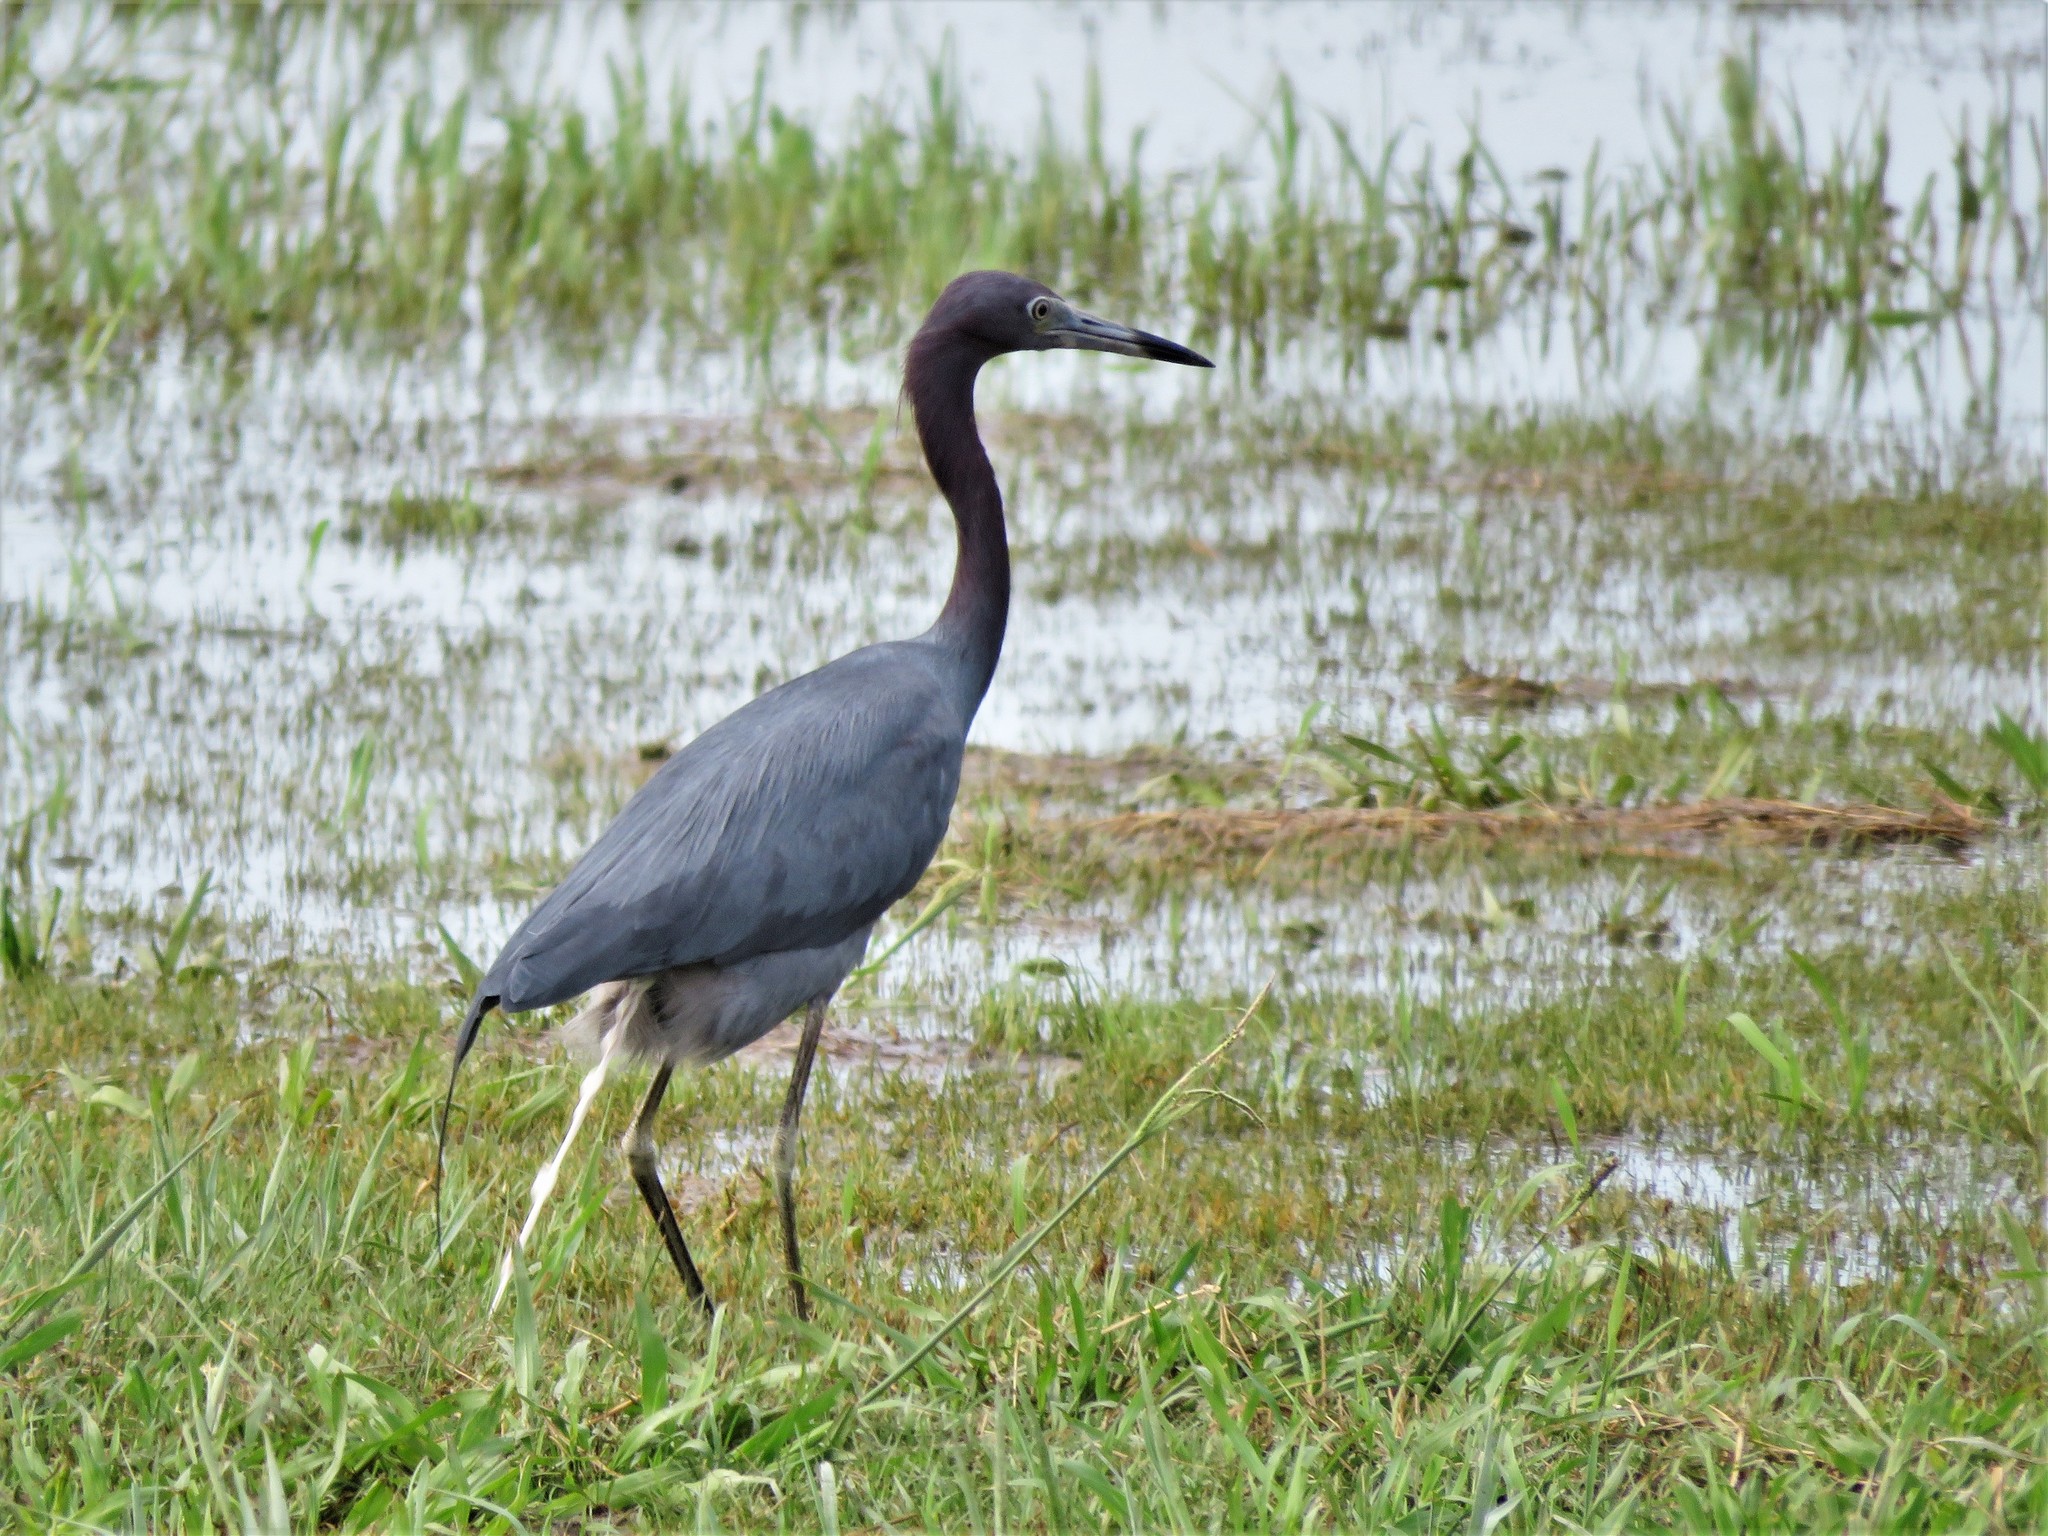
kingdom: Animalia
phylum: Chordata
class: Aves
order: Pelecaniformes
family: Ardeidae
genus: Egretta
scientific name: Egretta caerulea
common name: Little blue heron
